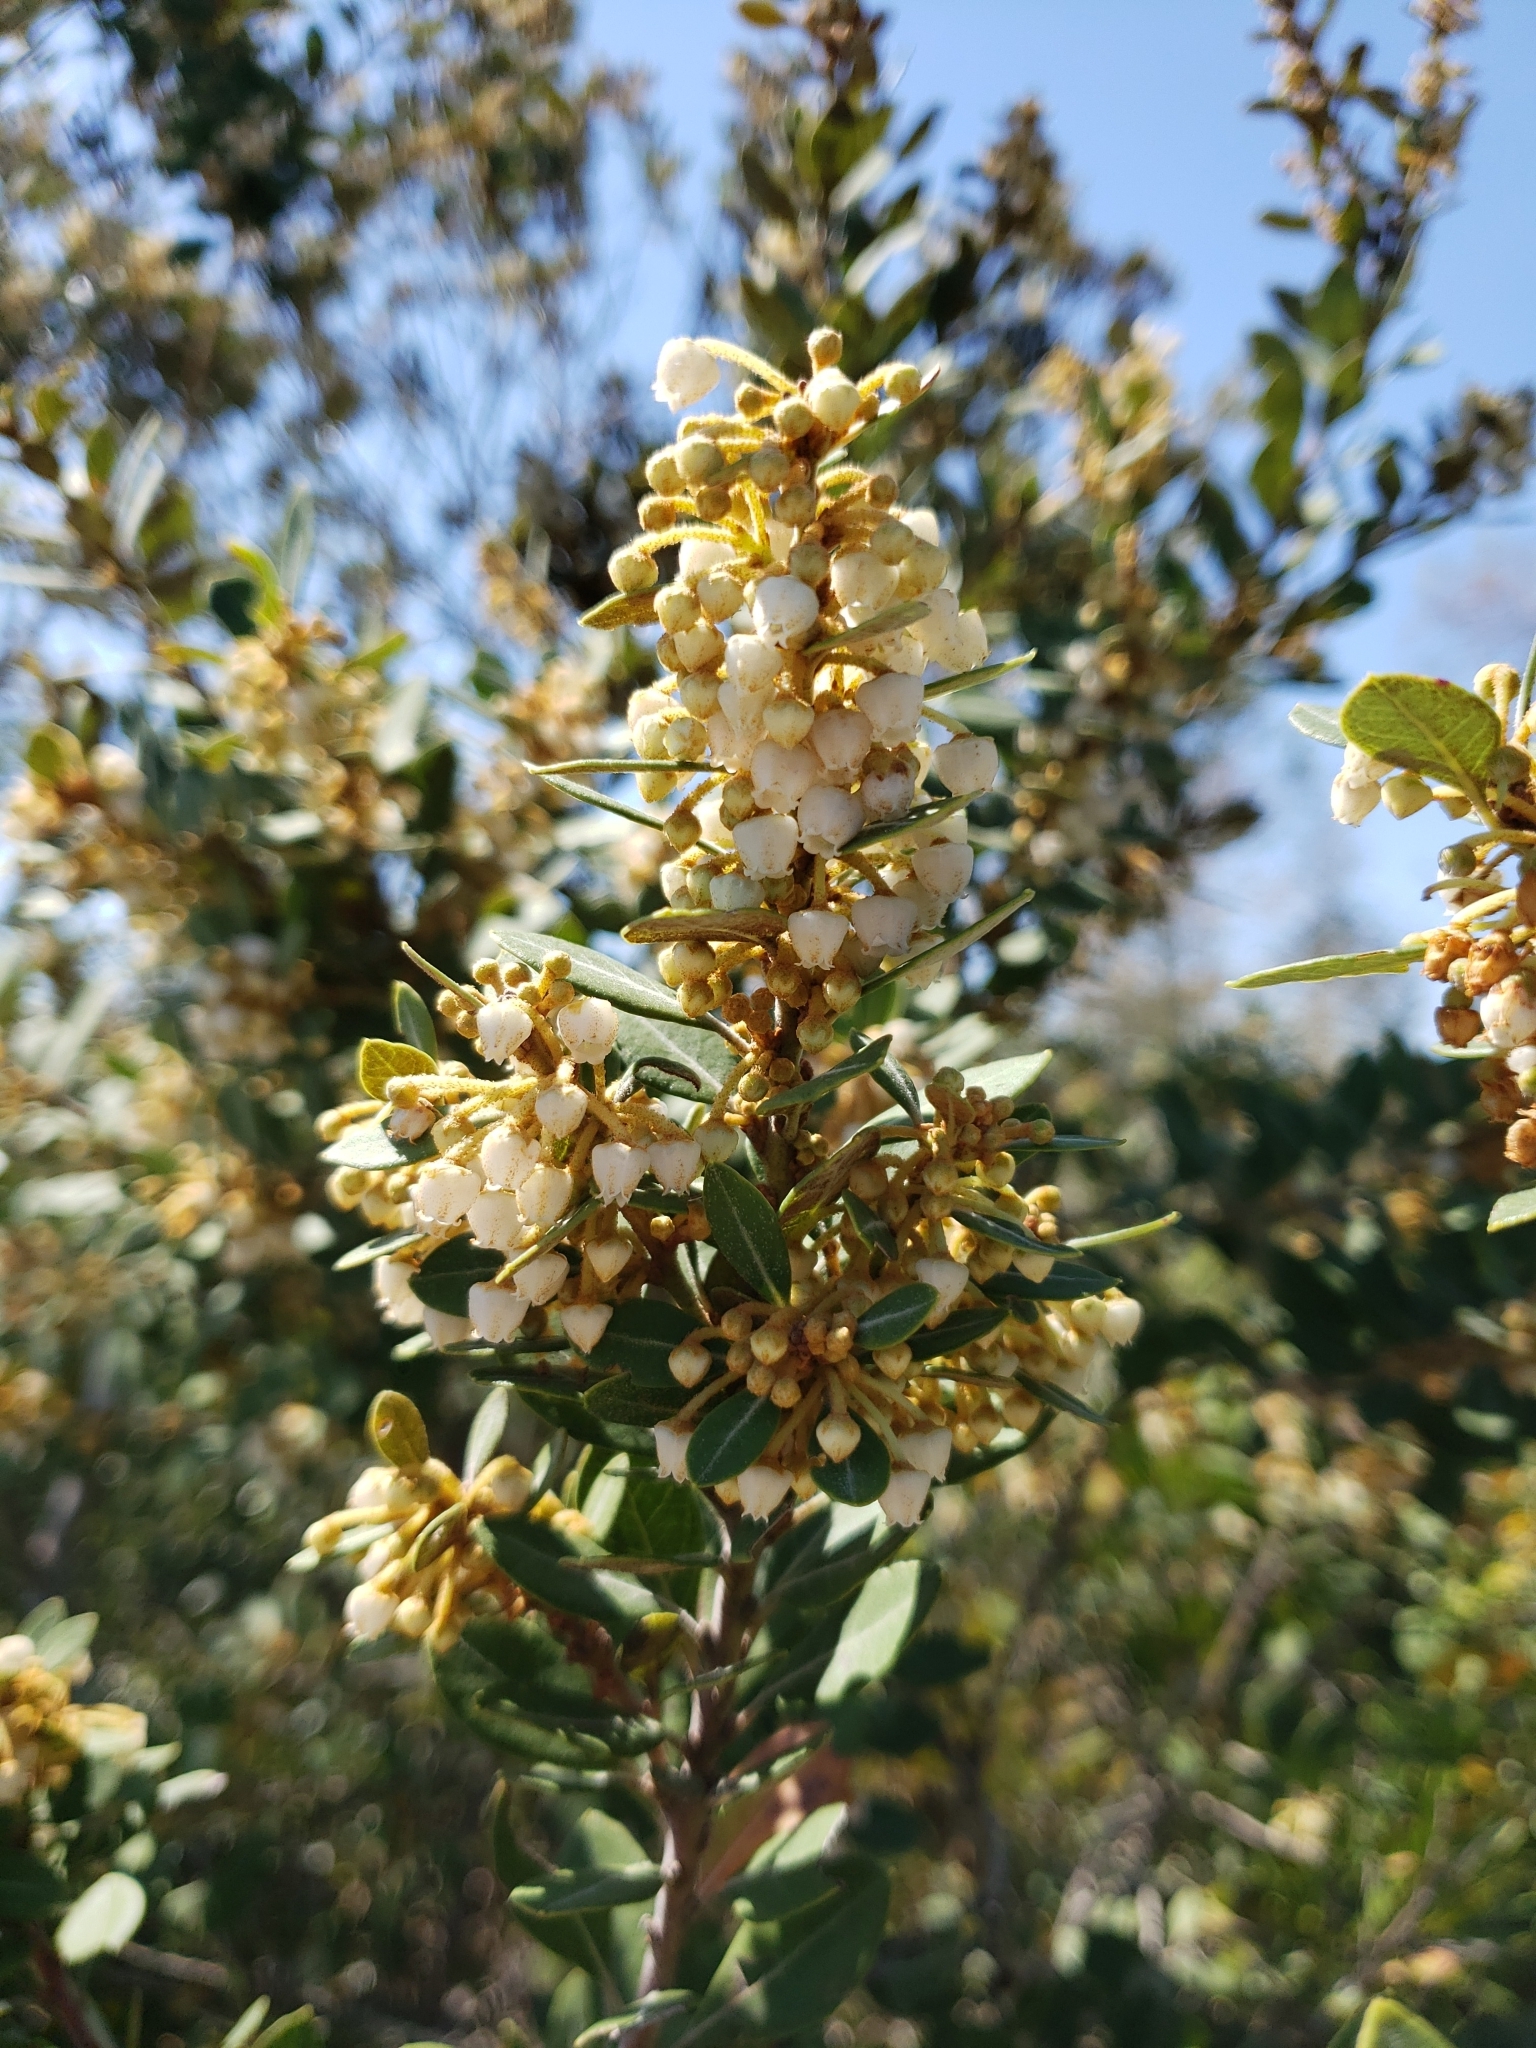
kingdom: Plantae
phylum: Tracheophyta
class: Magnoliopsida
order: Ericales
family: Ericaceae
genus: Lyonia
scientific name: Lyonia fruticosa
